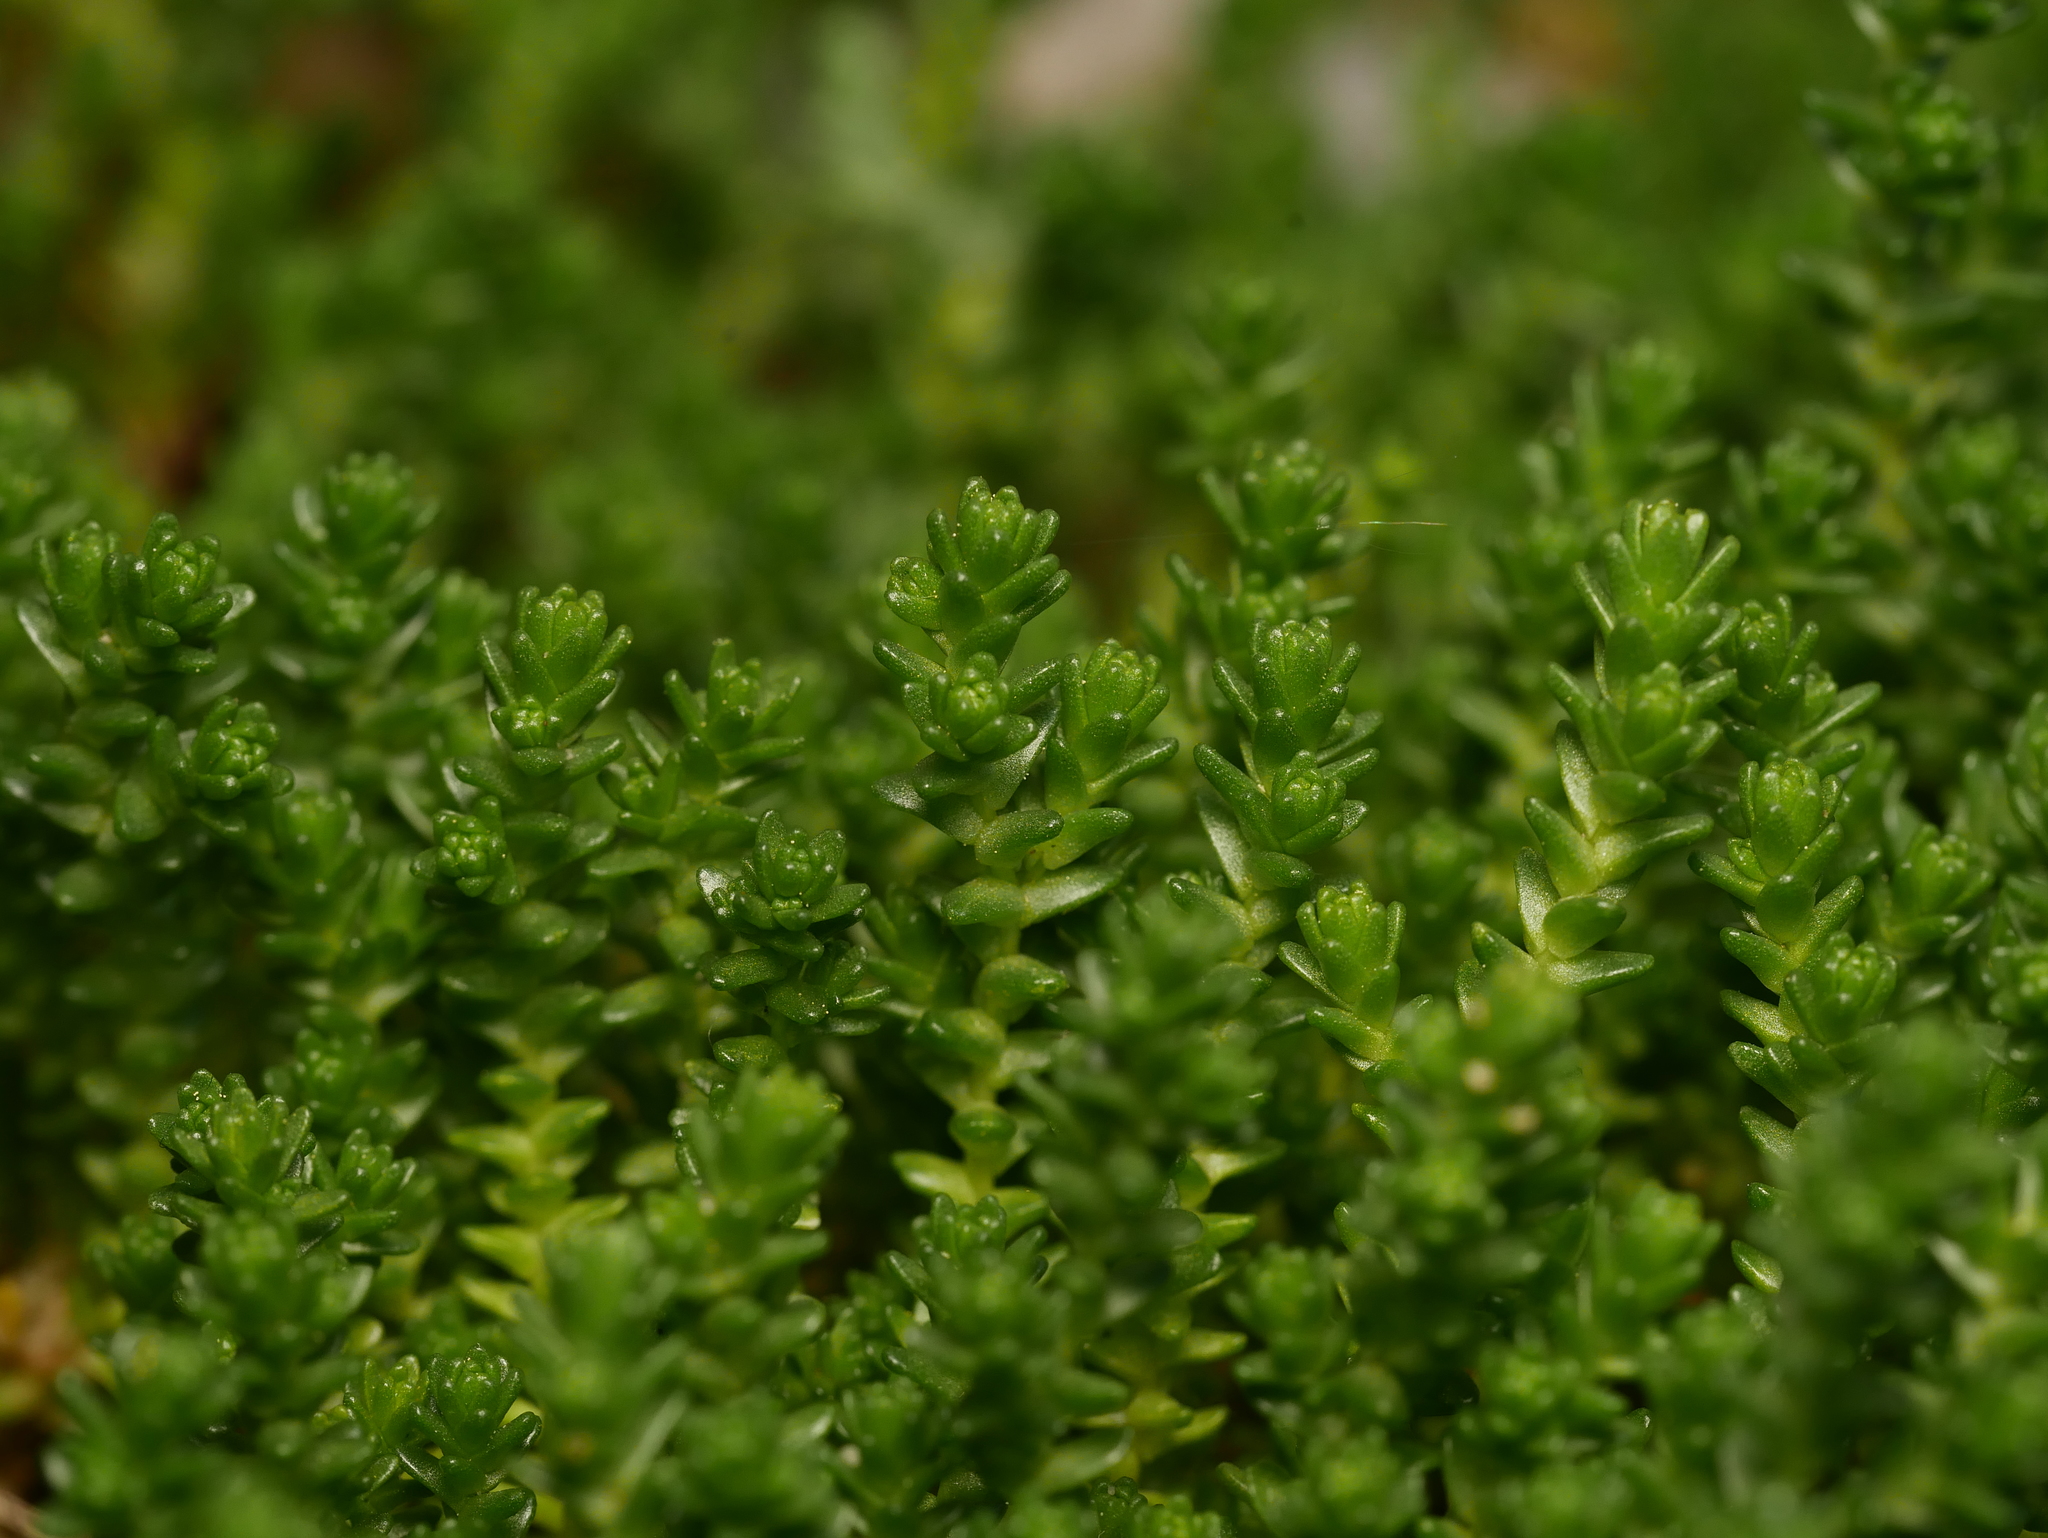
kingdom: Plantae
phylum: Tracheophyta
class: Magnoliopsida
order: Saxifragales
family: Crassulaceae
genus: Sedum
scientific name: Sedum acre
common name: Biting stonecrop
